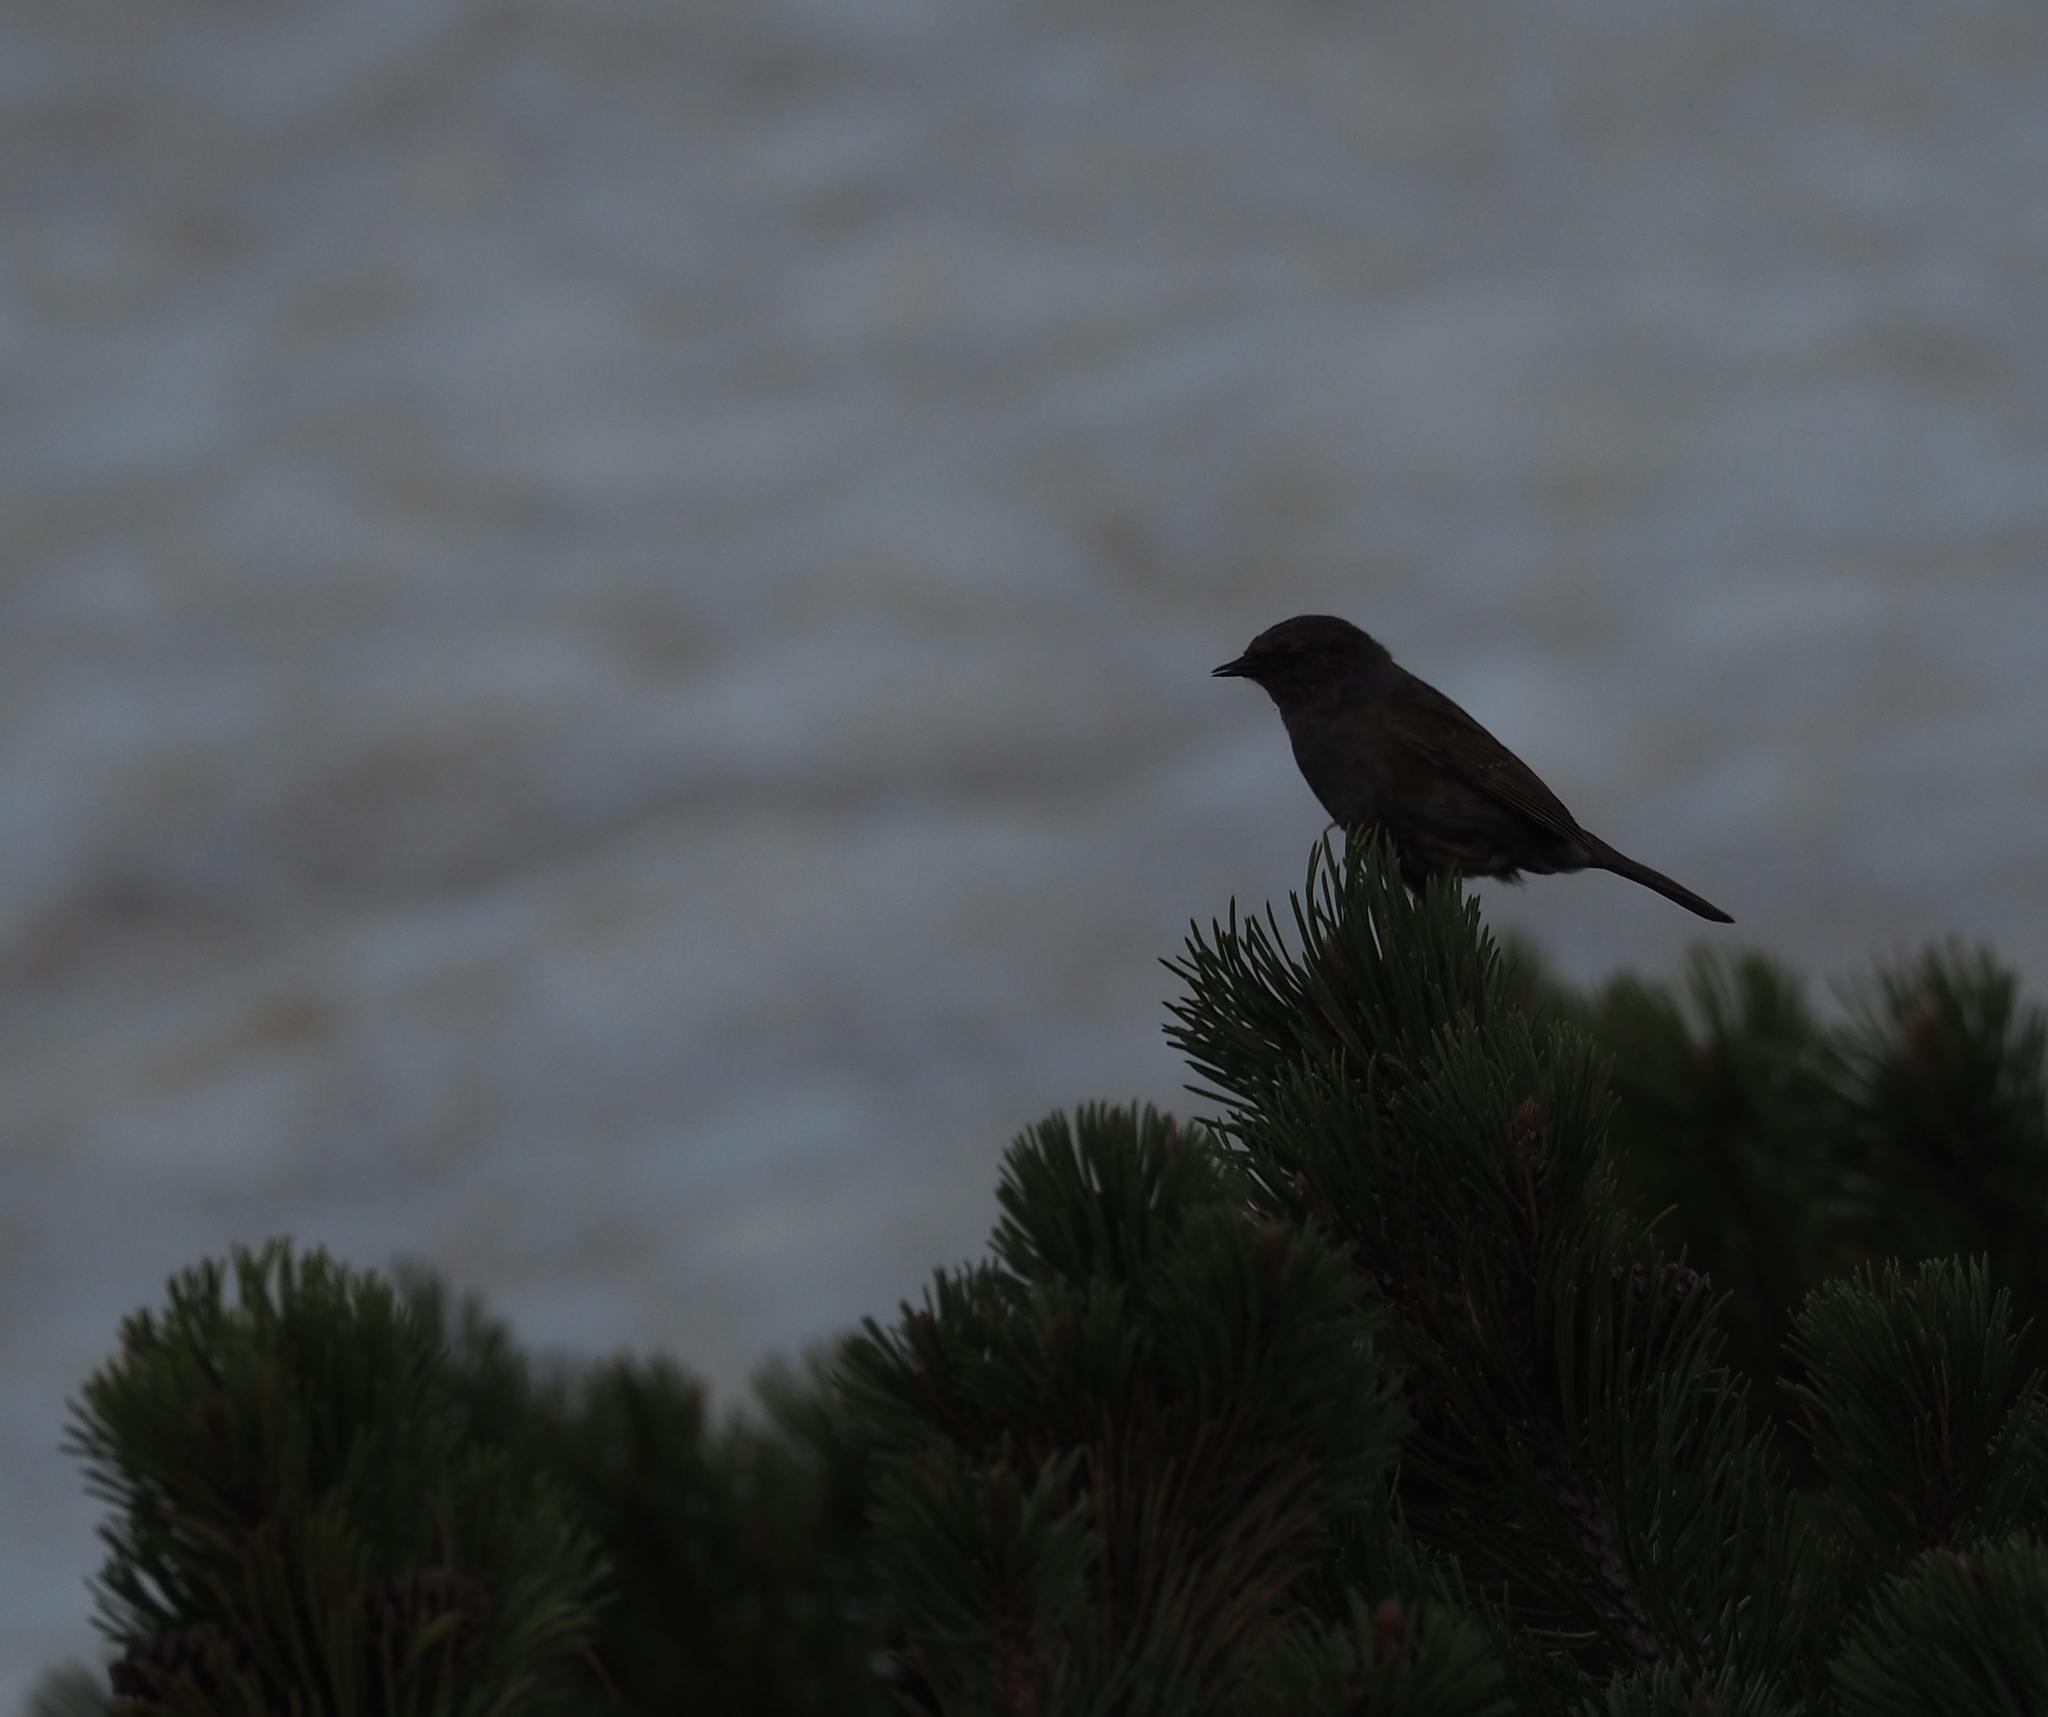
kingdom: Animalia
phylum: Chordata
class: Aves
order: Passeriformes
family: Prunellidae
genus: Prunella
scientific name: Prunella modularis
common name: Dunnock
